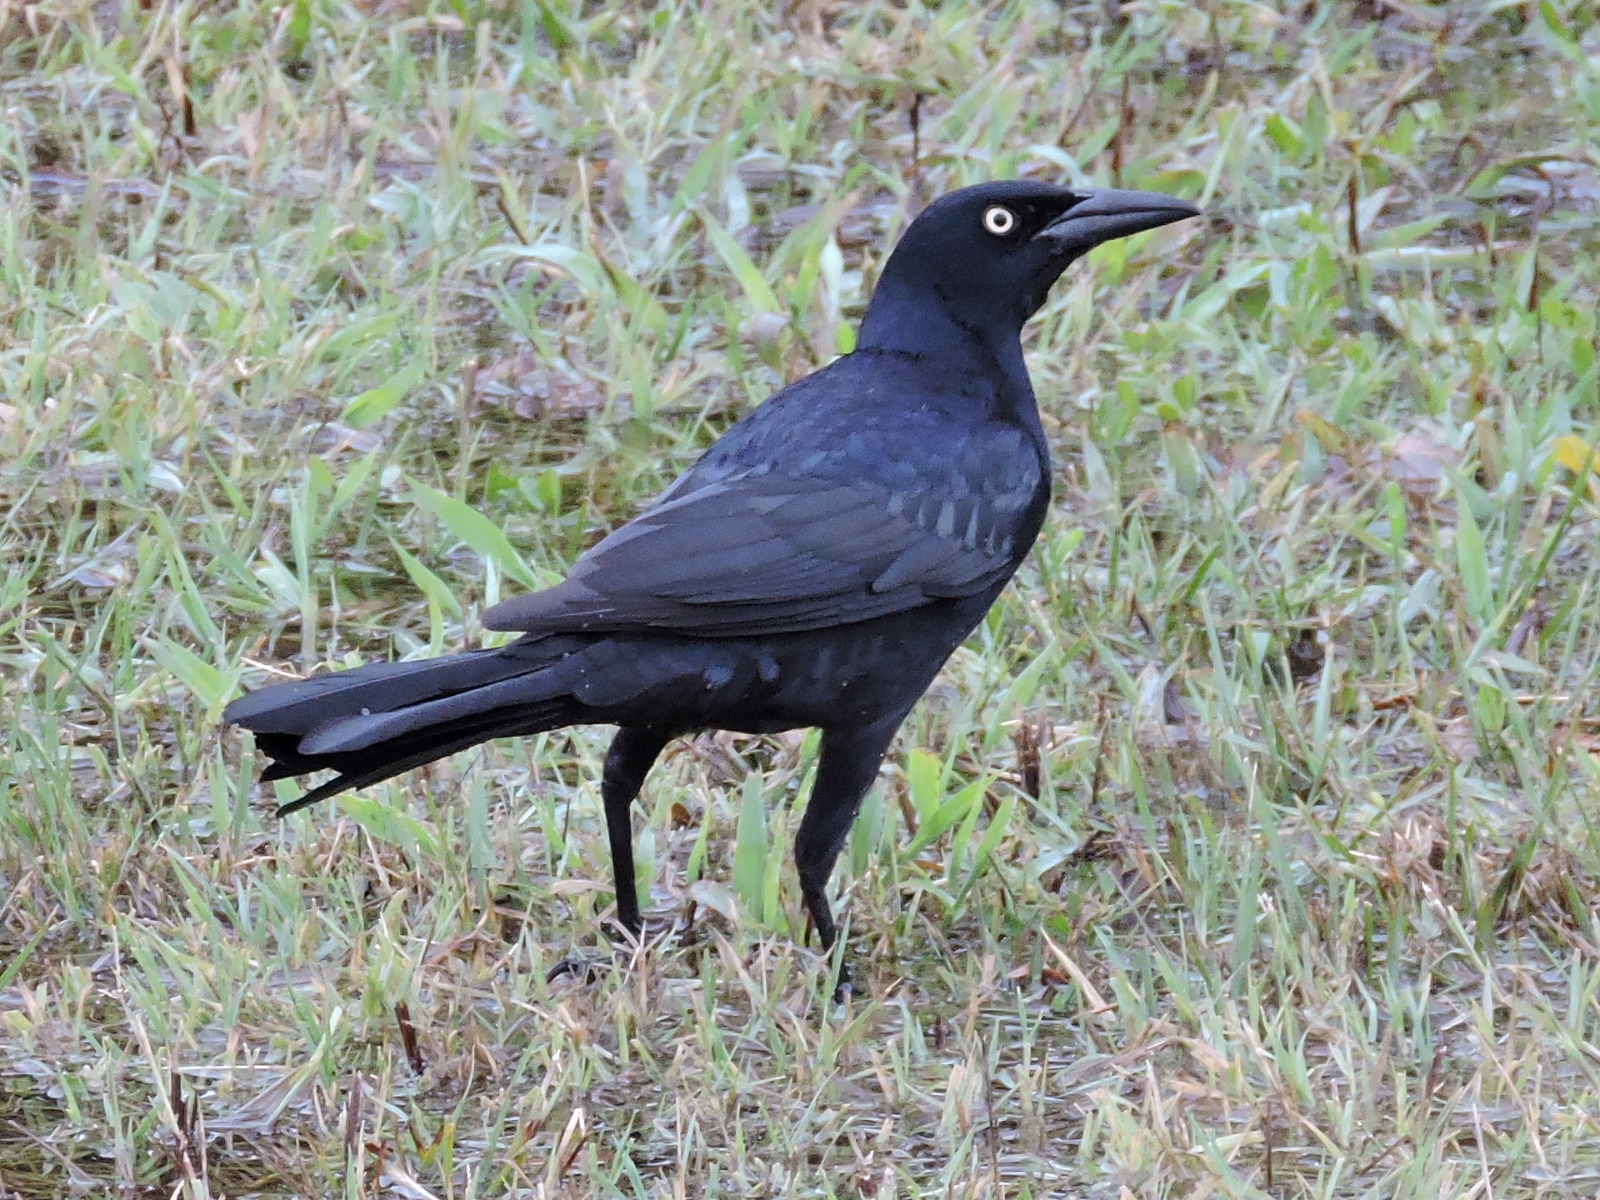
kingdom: Animalia
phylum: Chordata
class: Aves
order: Passeriformes
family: Icteridae
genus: Quiscalus
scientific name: Quiscalus mexicanus
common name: Great-tailed grackle
